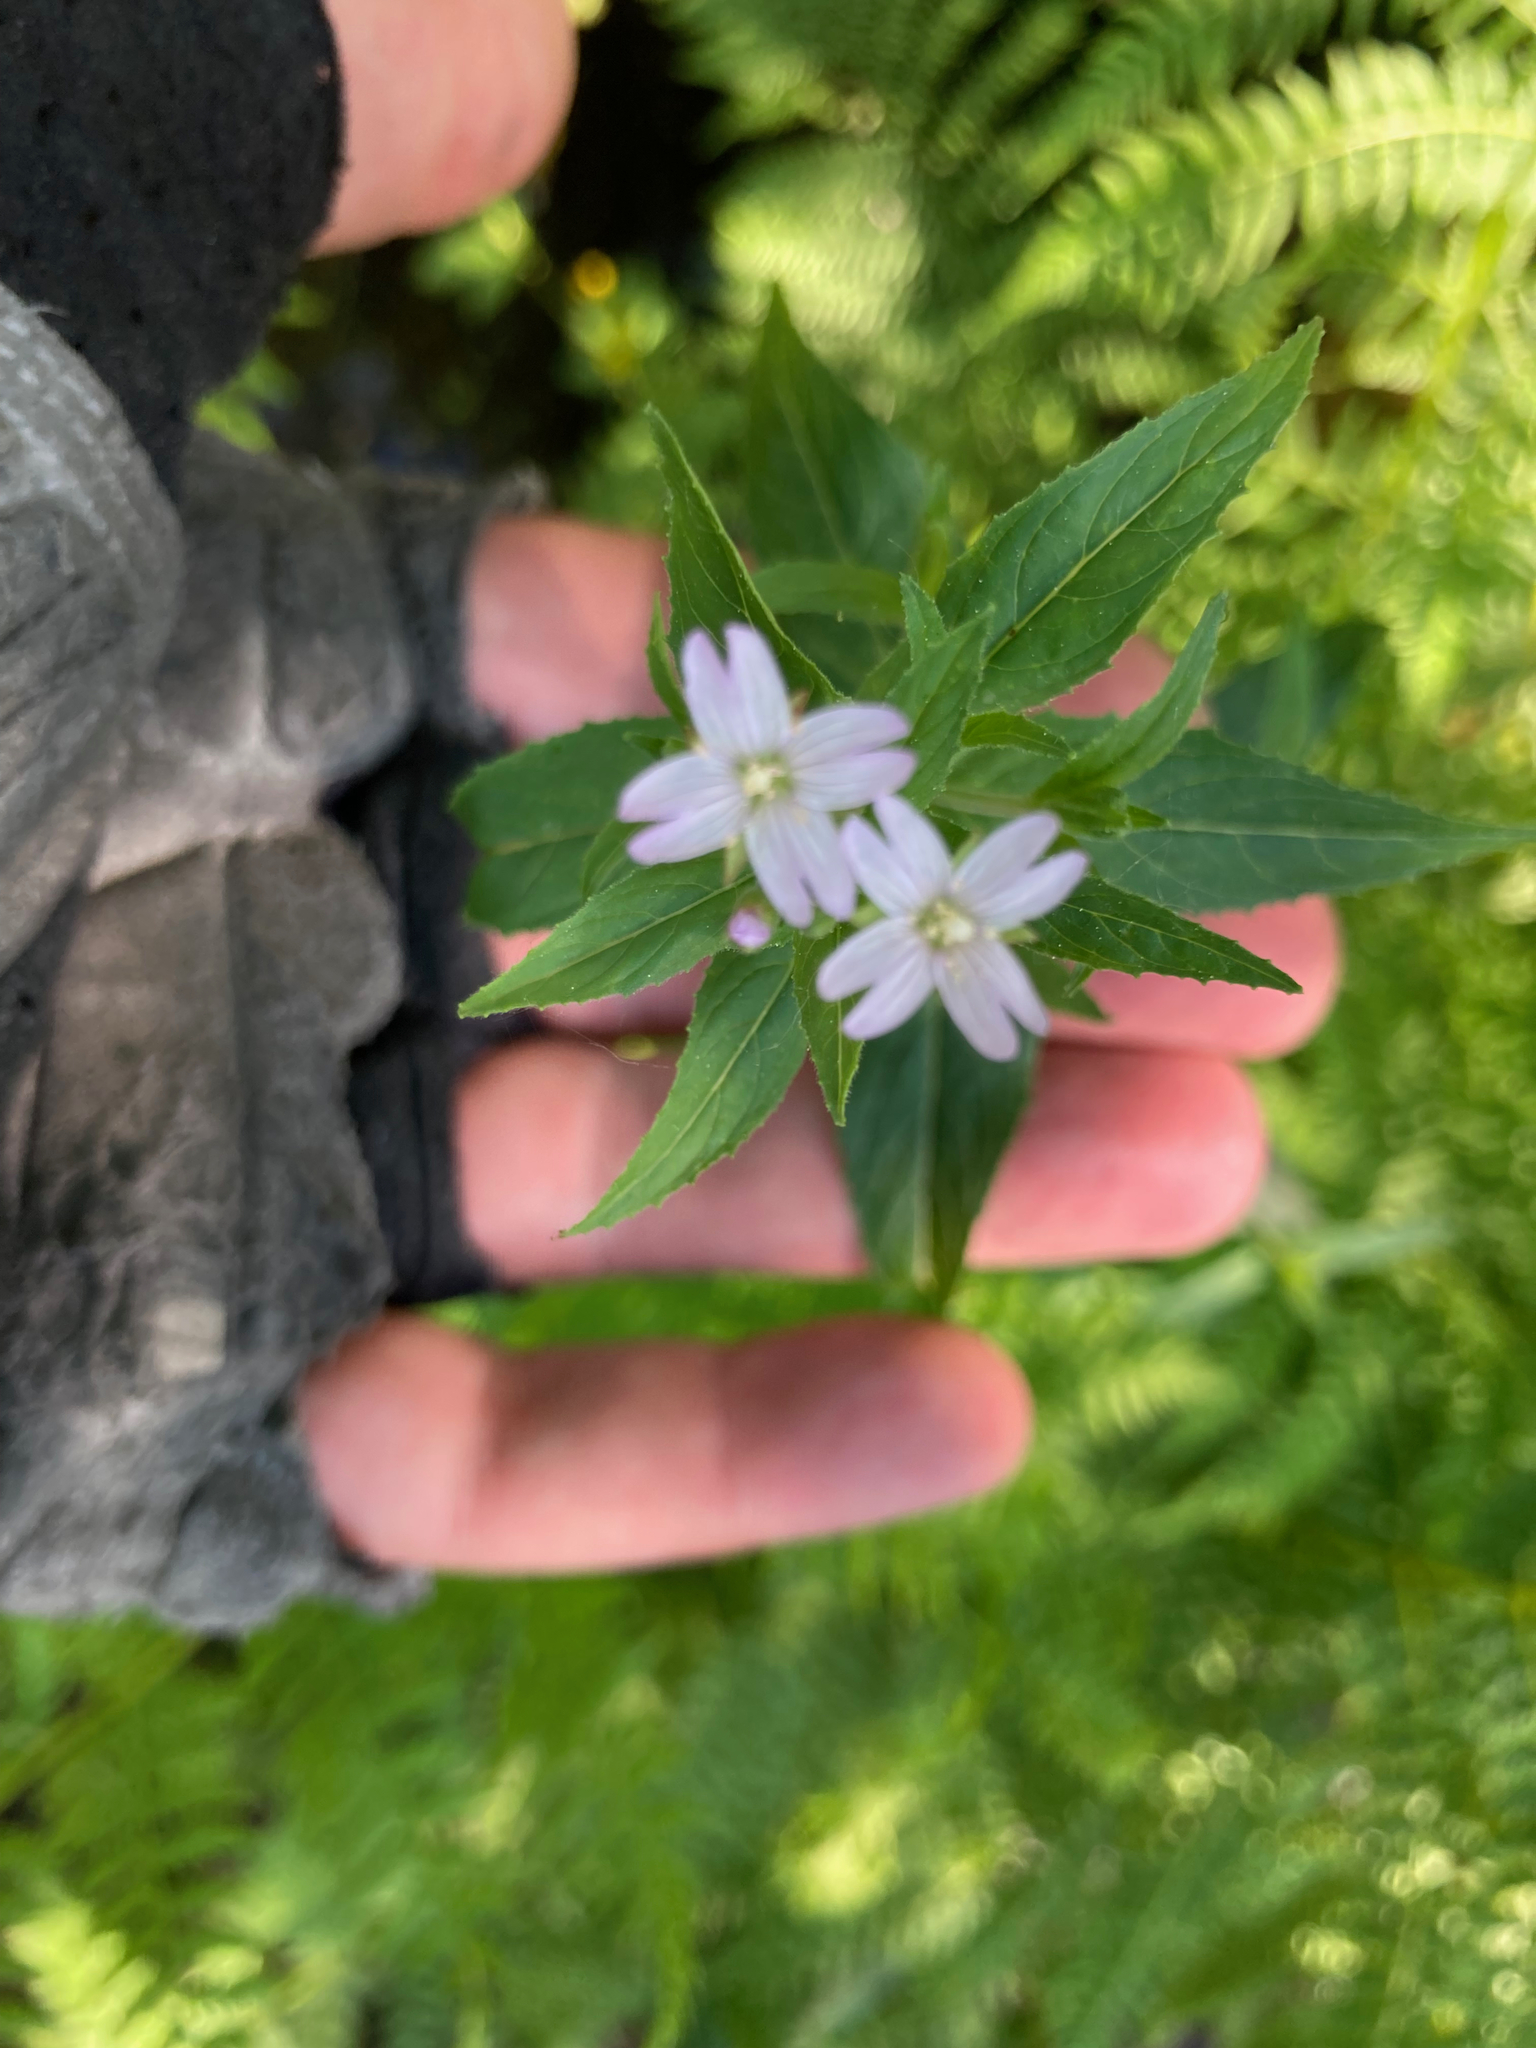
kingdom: Plantae
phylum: Tracheophyta
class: Magnoliopsida
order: Myrtales
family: Onagraceae
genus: Epilobium
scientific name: Epilobium ciliatum
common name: American willowherb
